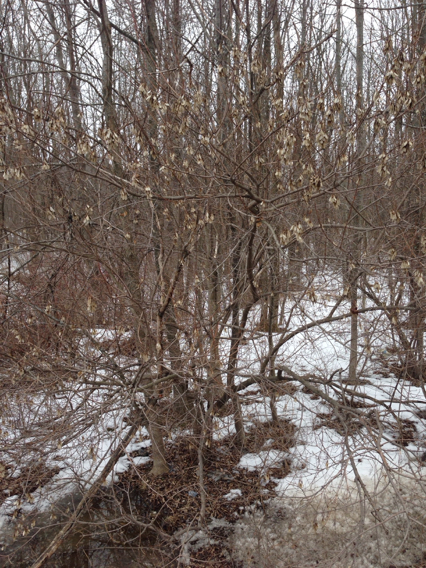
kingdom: Plantae
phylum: Tracheophyta
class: Magnoliopsida
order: Sapindales
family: Sapindaceae
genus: Acer
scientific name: Acer tataricum
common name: Tartar maple
